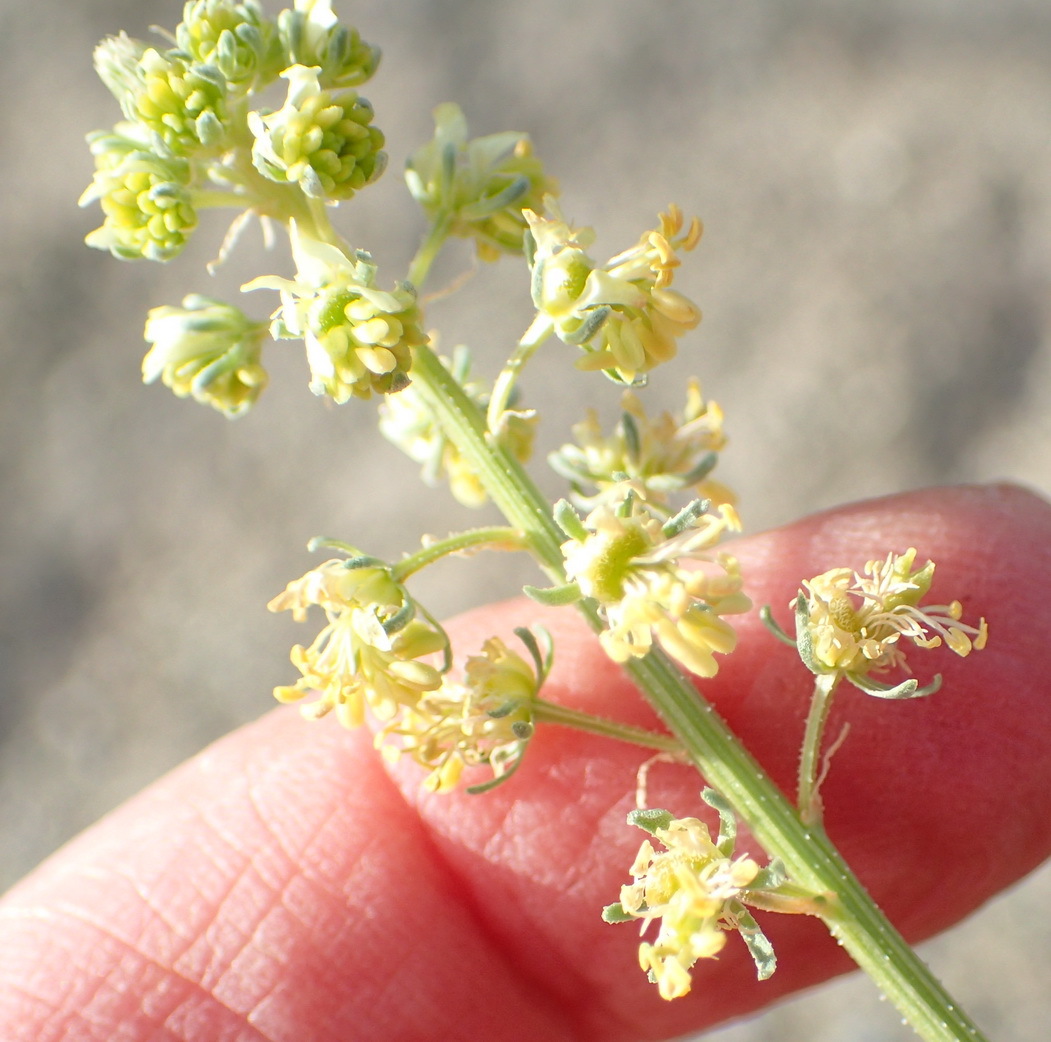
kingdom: Plantae
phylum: Tracheophyta
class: Magnoliopsida
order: Brassicales
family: Resedaceae
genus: Reseda
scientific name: Reseda lutea
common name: Wild mignonette
